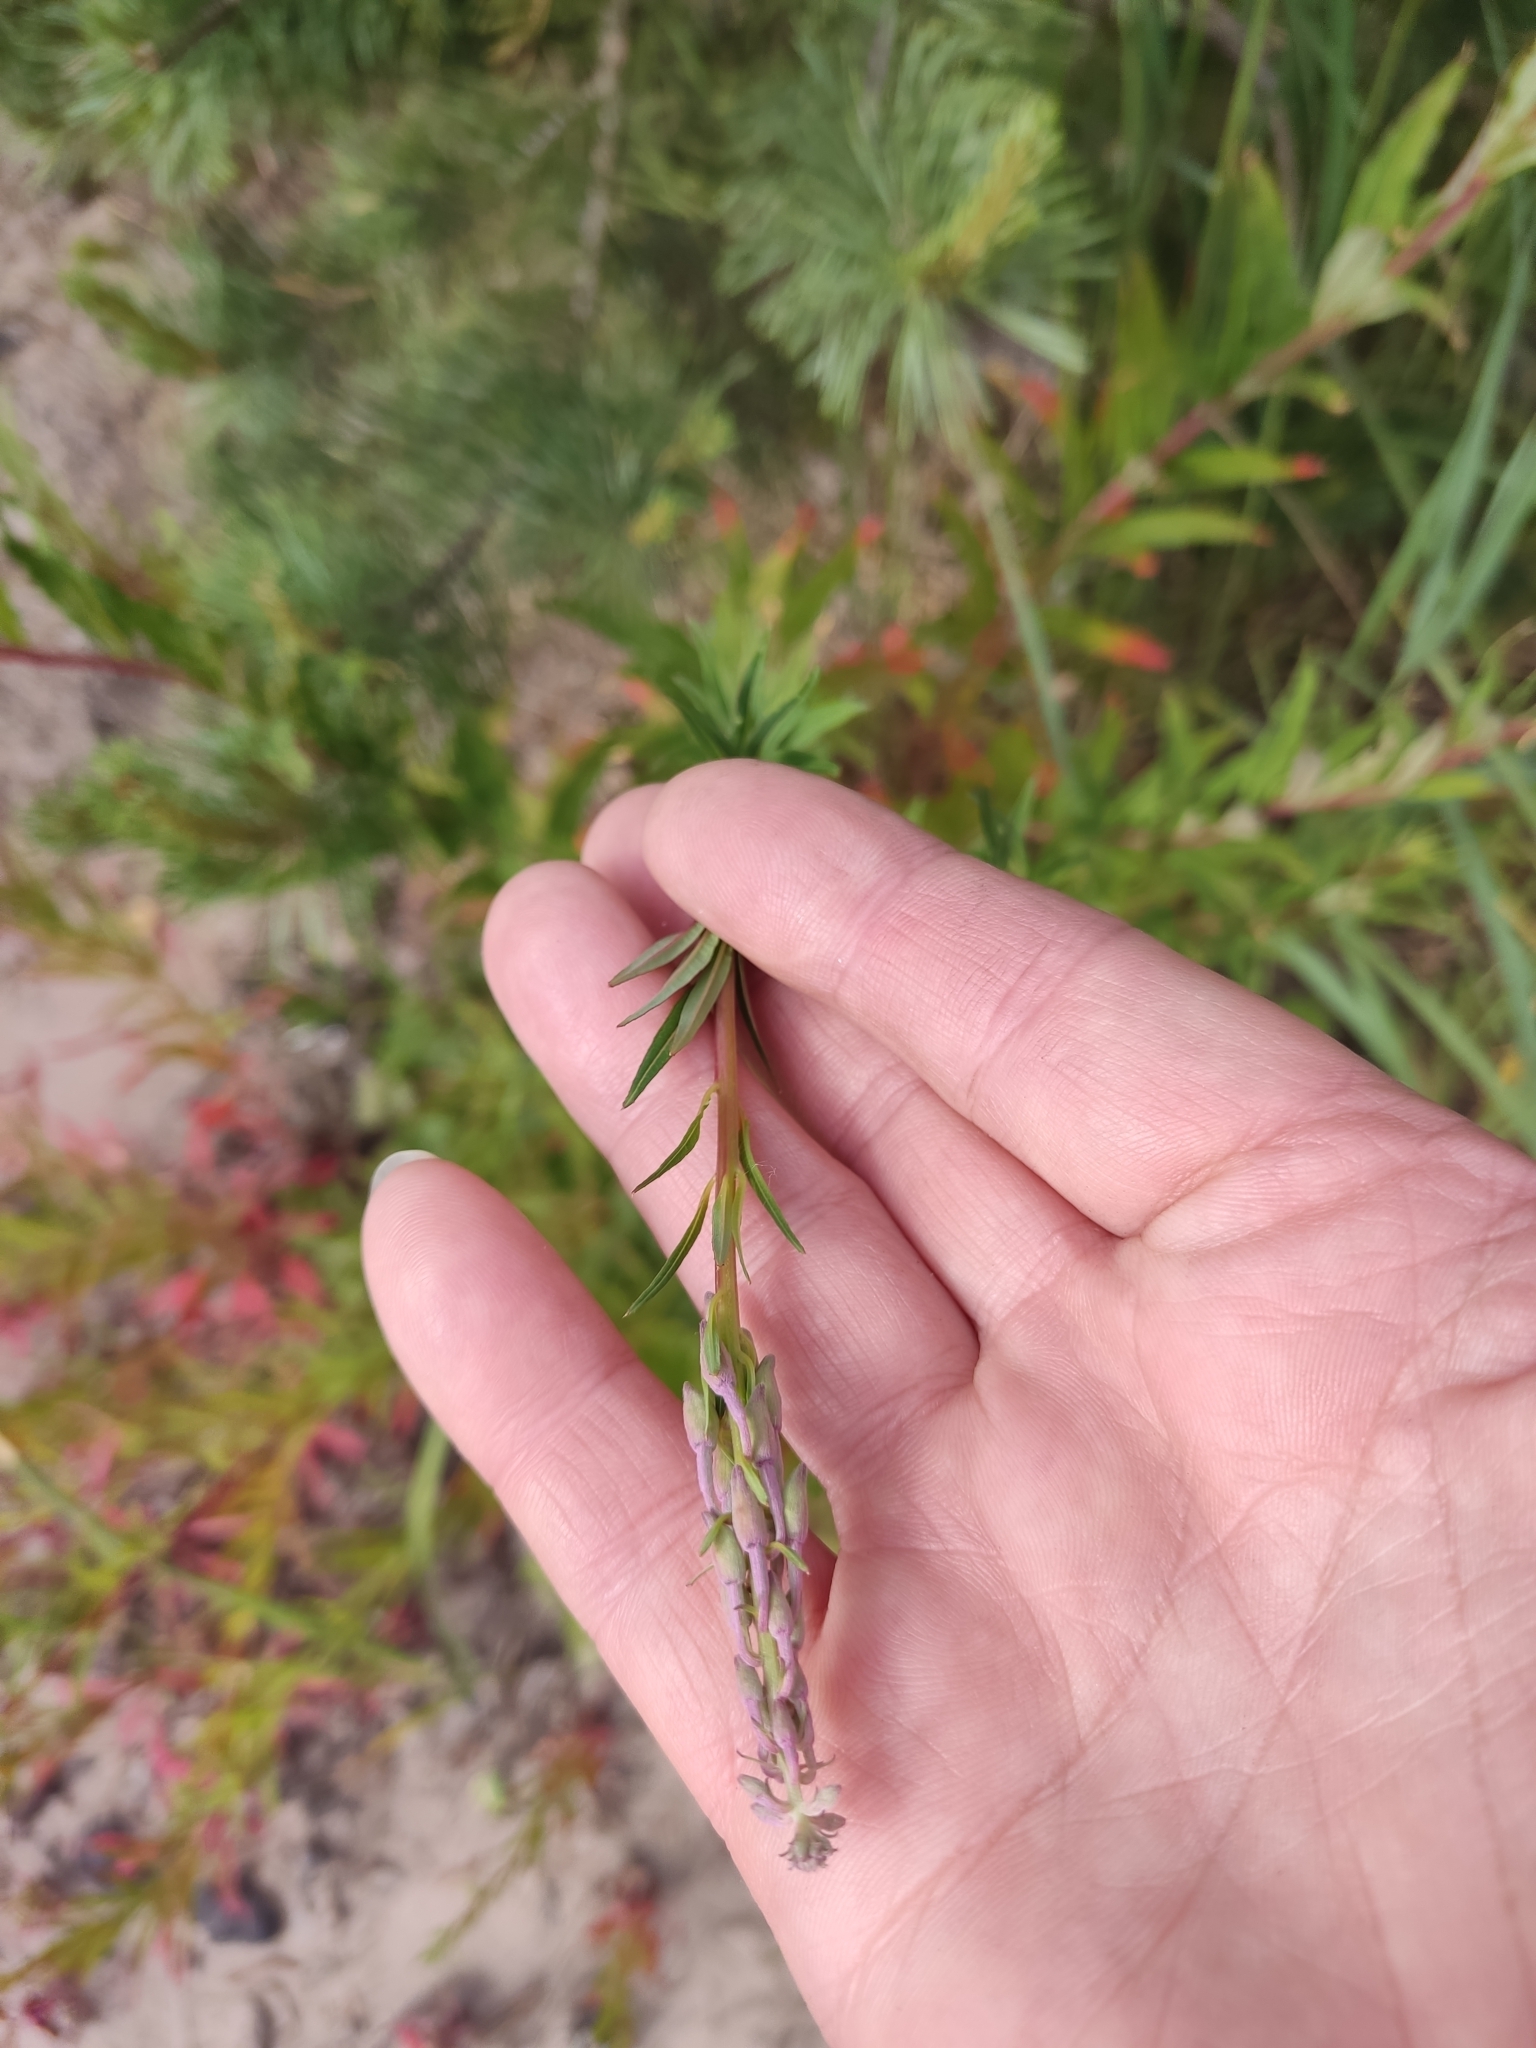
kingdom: Plantae
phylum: Tracheophyta
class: Magnoliopsida
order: Myrtales
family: Onagraceae
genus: Chamaenerion
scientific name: Chamaenerion angustifolium
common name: Fireweed
